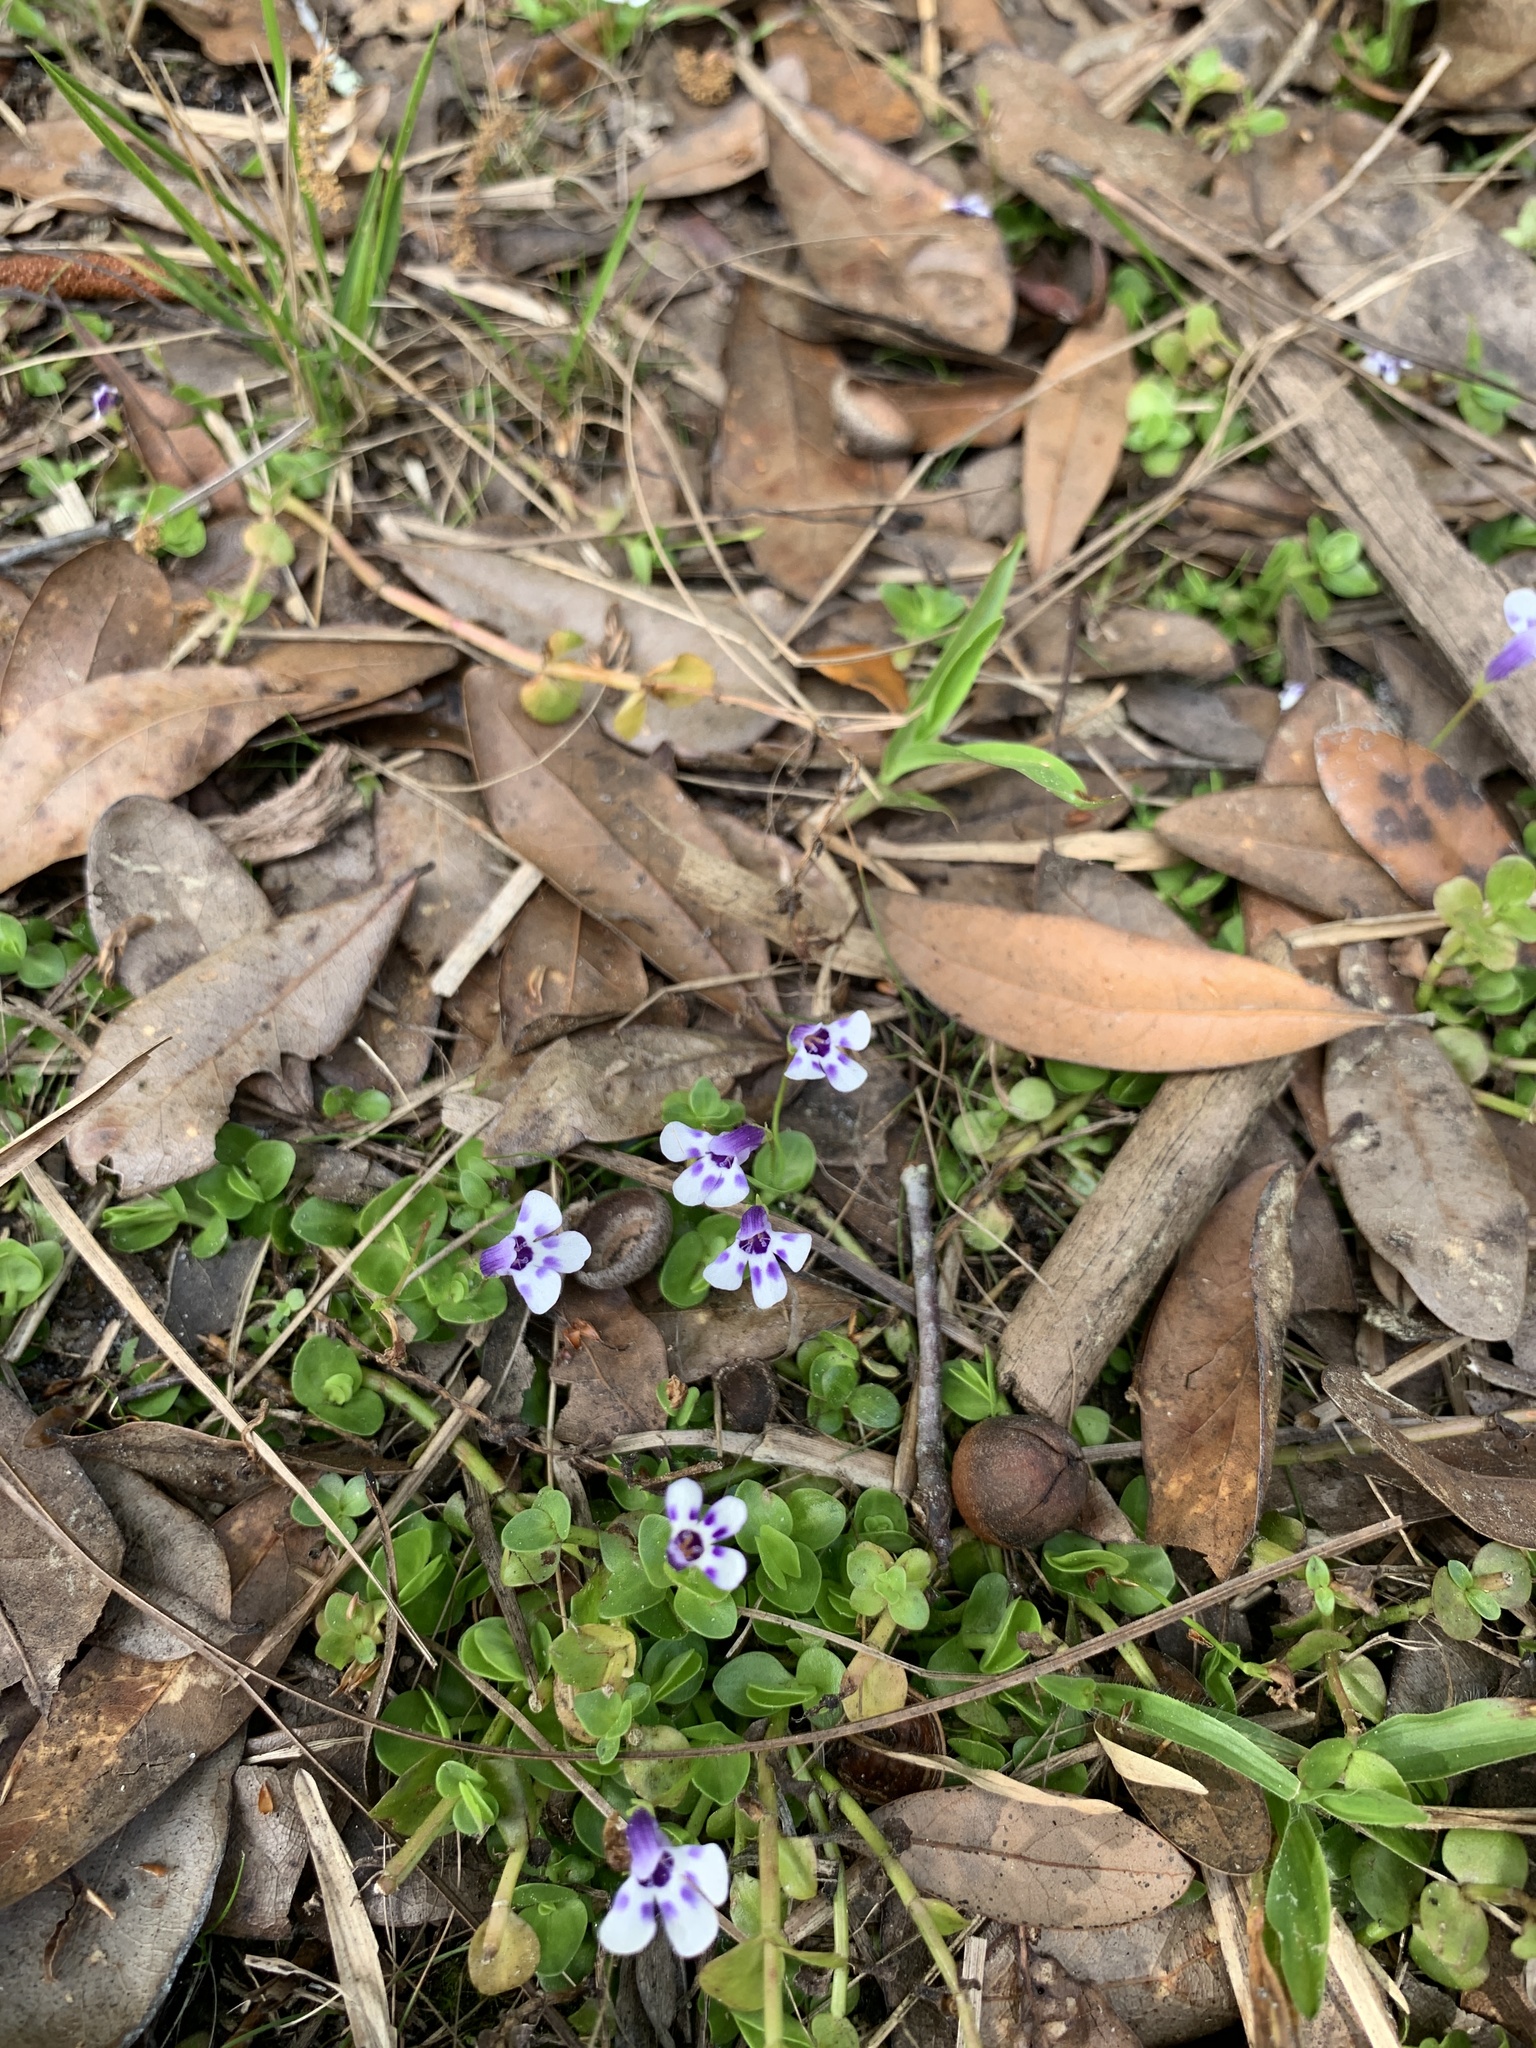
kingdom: Plantae
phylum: Tracheophyta
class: Magnoliopsida
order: Lamiales
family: Linderniaceae
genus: Lindernia
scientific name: Lindernia grandiflora
